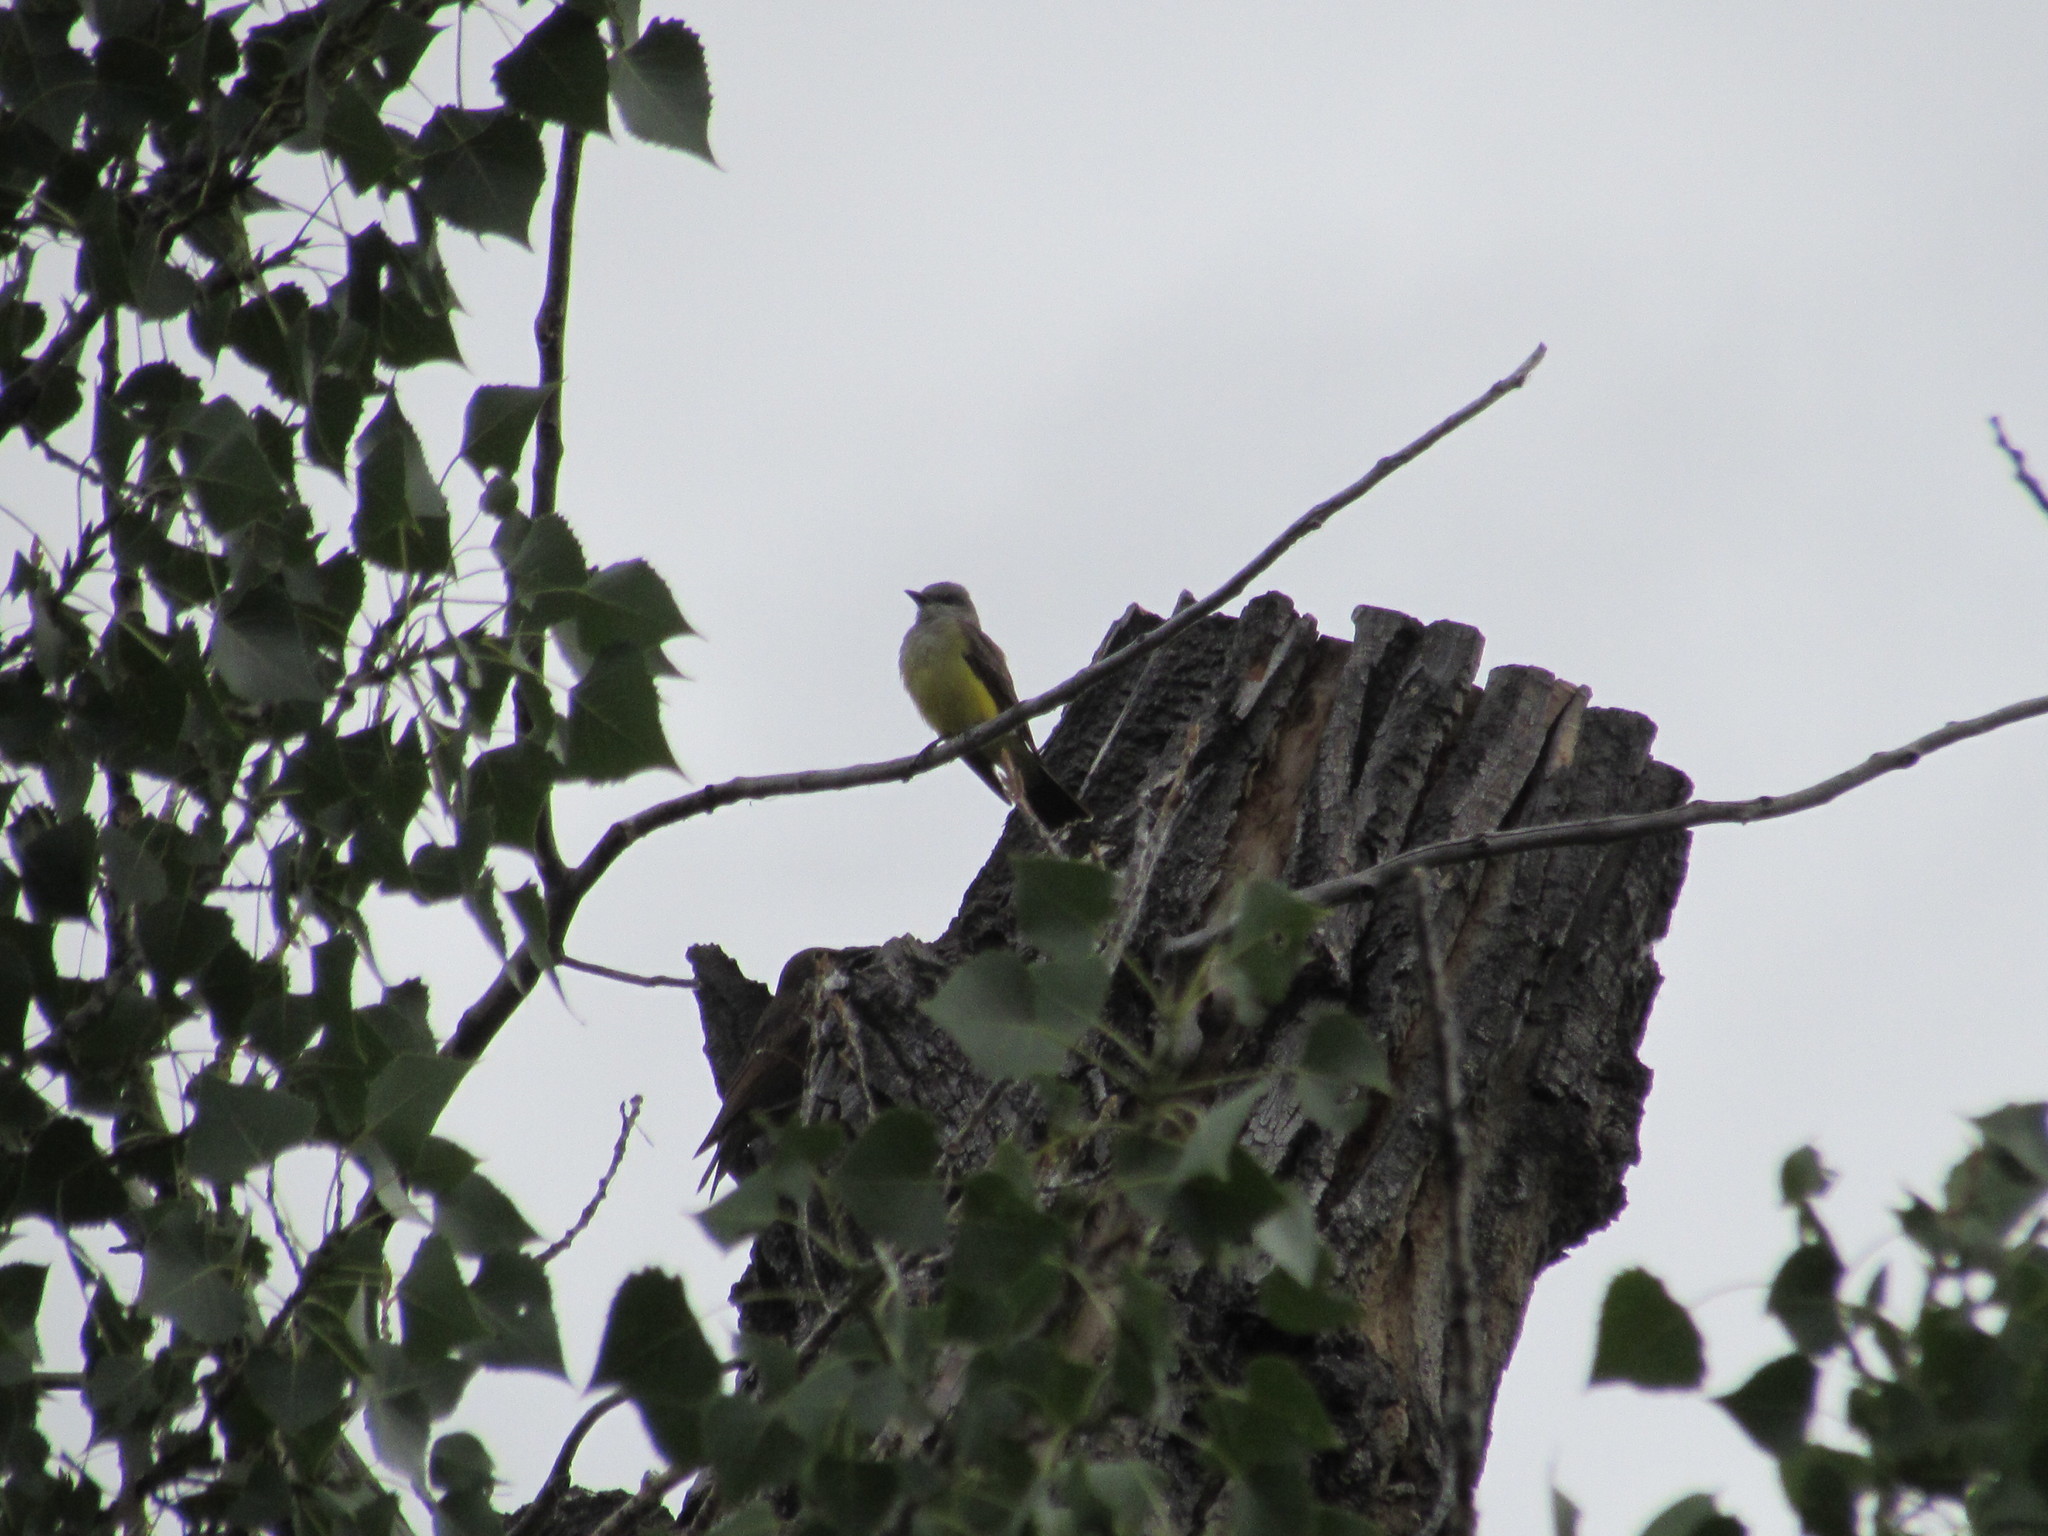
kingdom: Animalia
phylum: Chordata
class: Aves
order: Passeriformes
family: Tyrannidae
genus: Tyrannus
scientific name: Tyrannus verticalis
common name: Western kingbird
